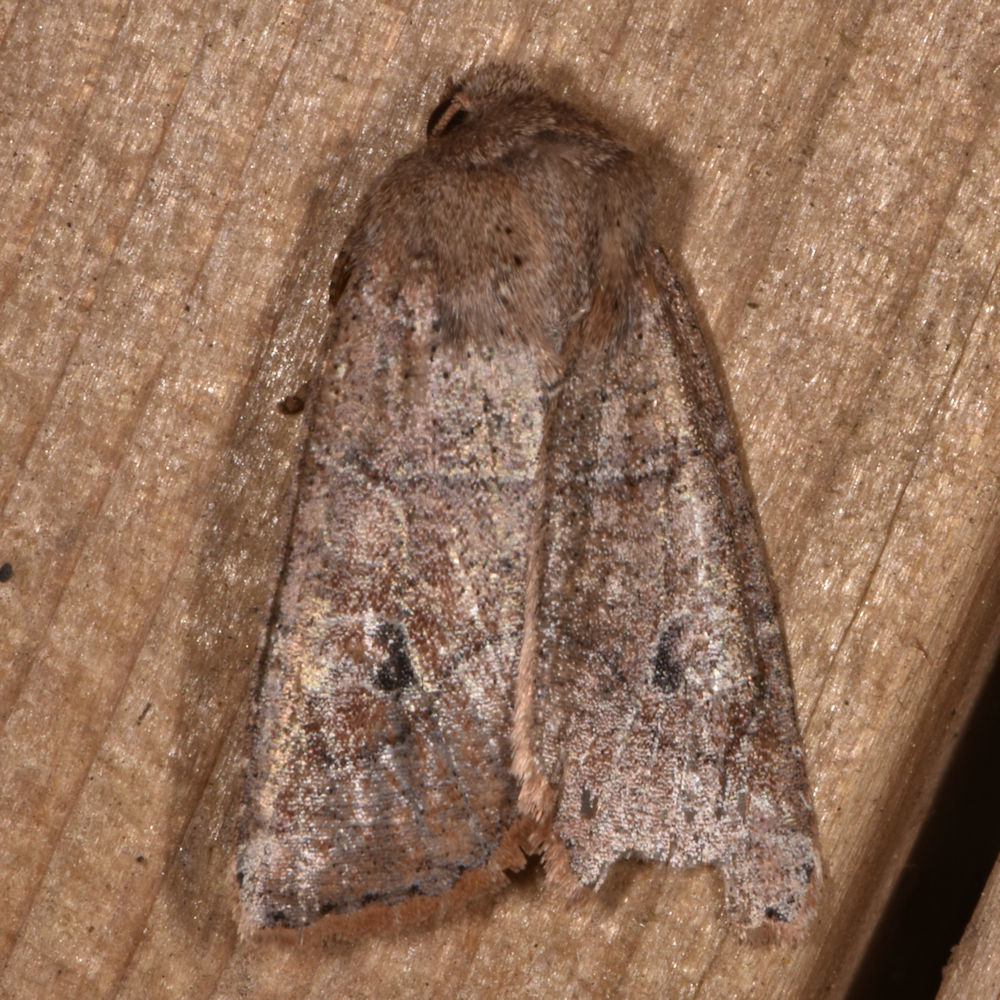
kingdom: Animalia
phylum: Arthropoda
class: Insecta
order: Lepidoptera
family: Noctuidae
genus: Crocigrapha
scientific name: Crocigrapha normani
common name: Norman's quaker
